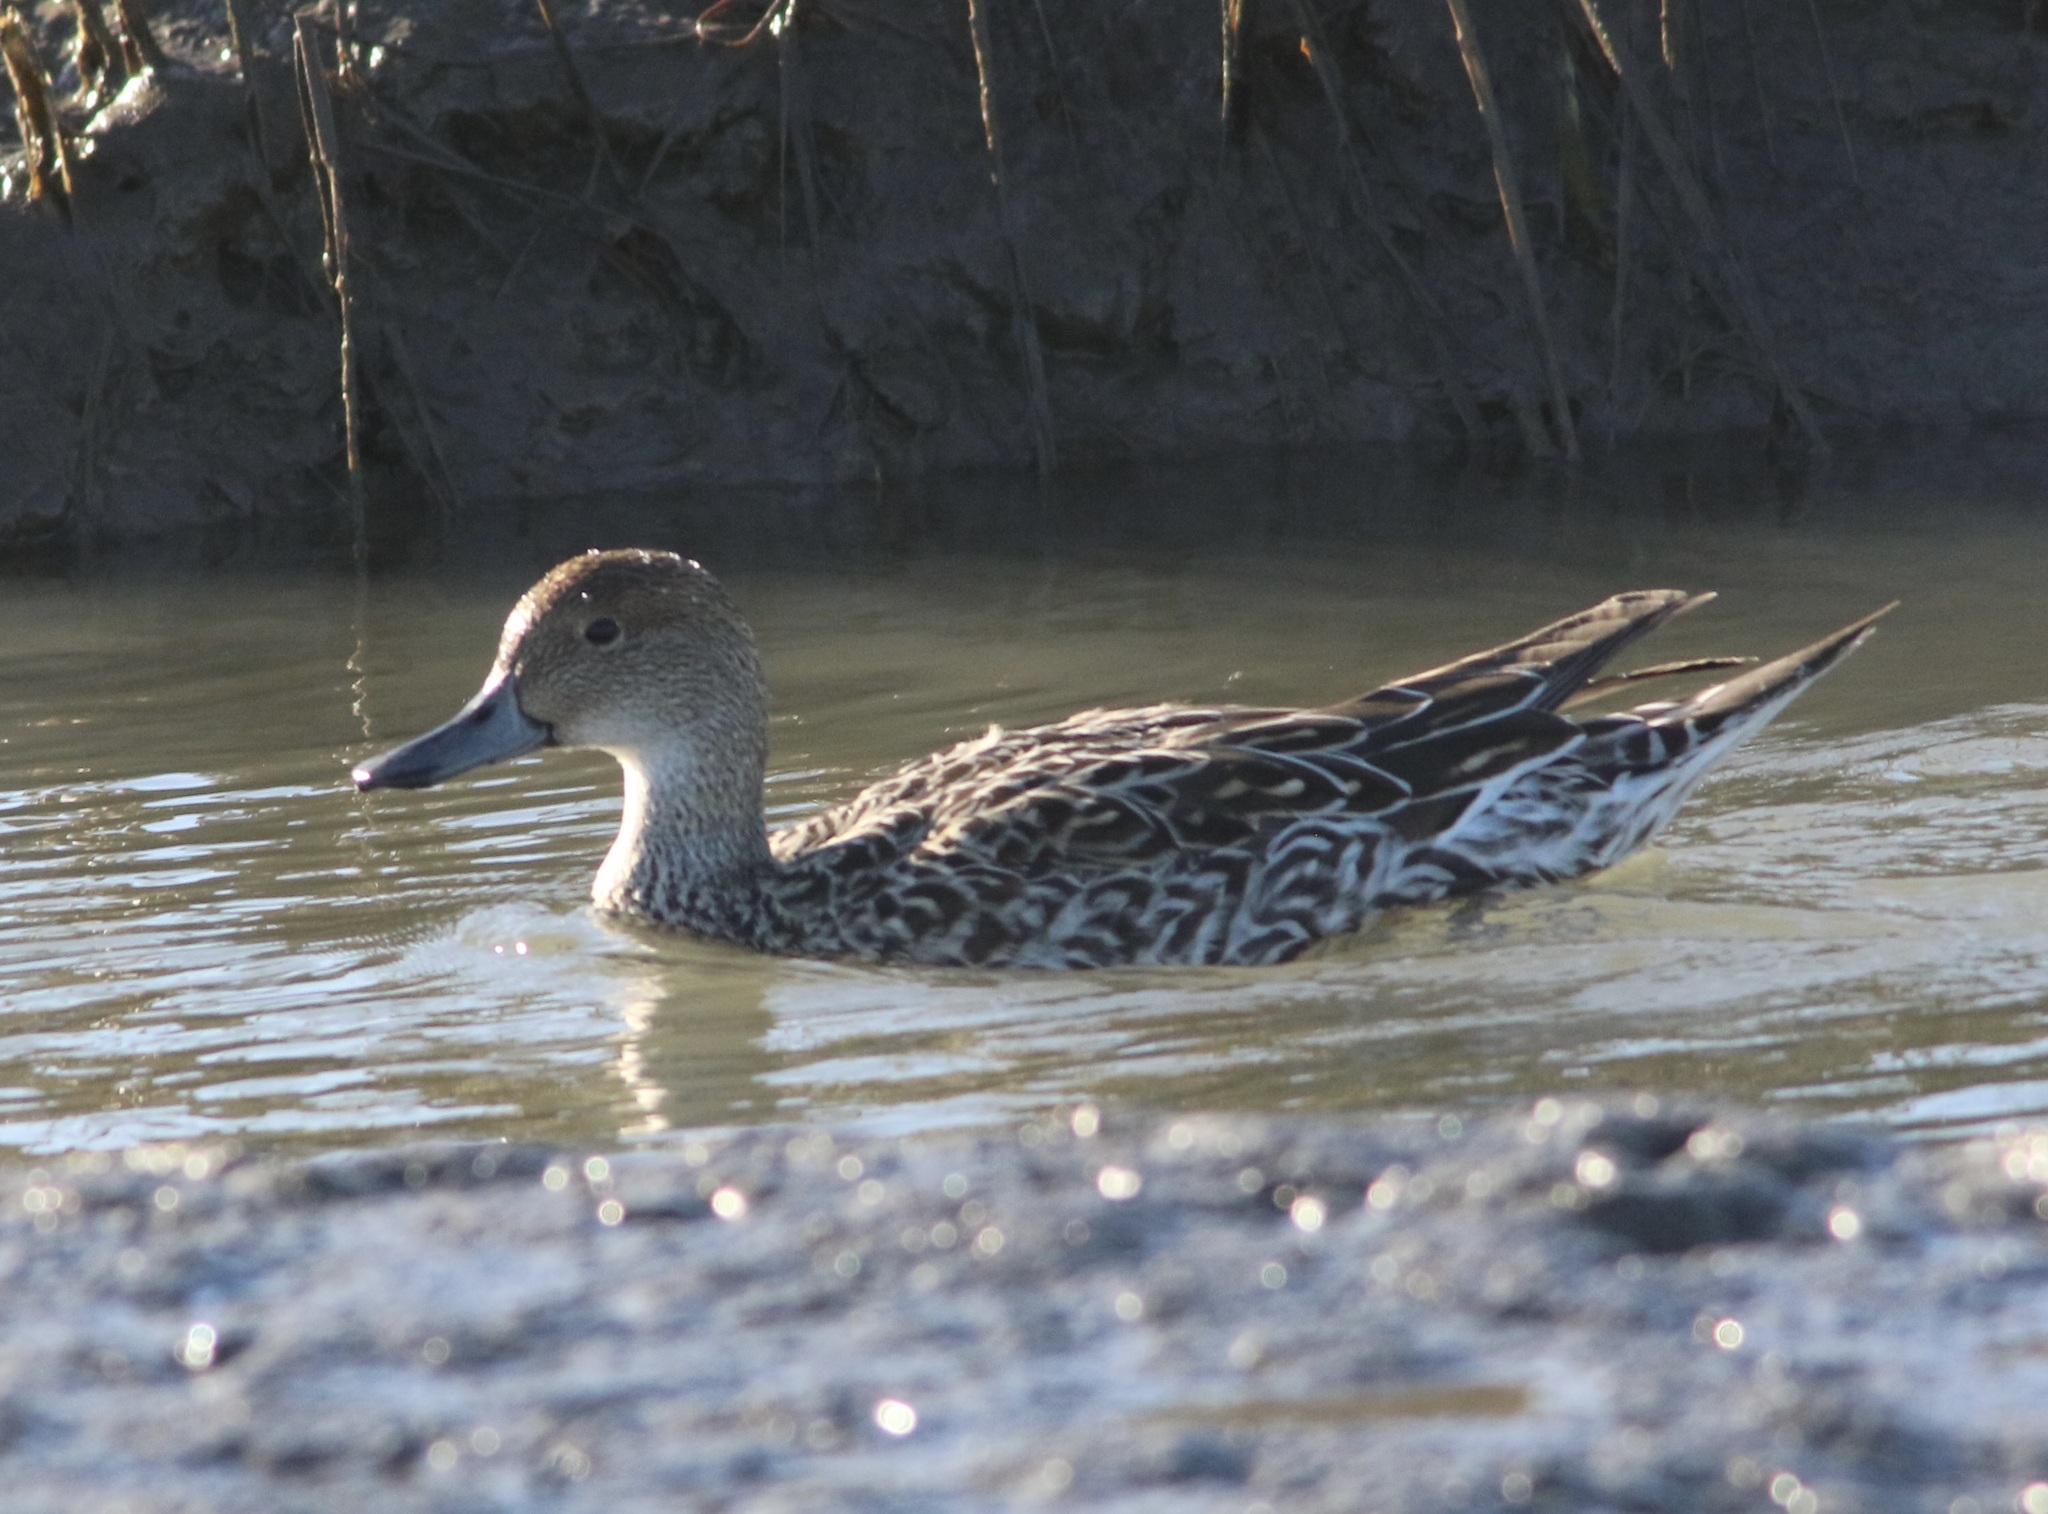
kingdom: Animalia
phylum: Chordata
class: Aves
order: Anseriformes
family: Anatidae
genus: Anas
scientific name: Anas acuta
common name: Northern pintail
